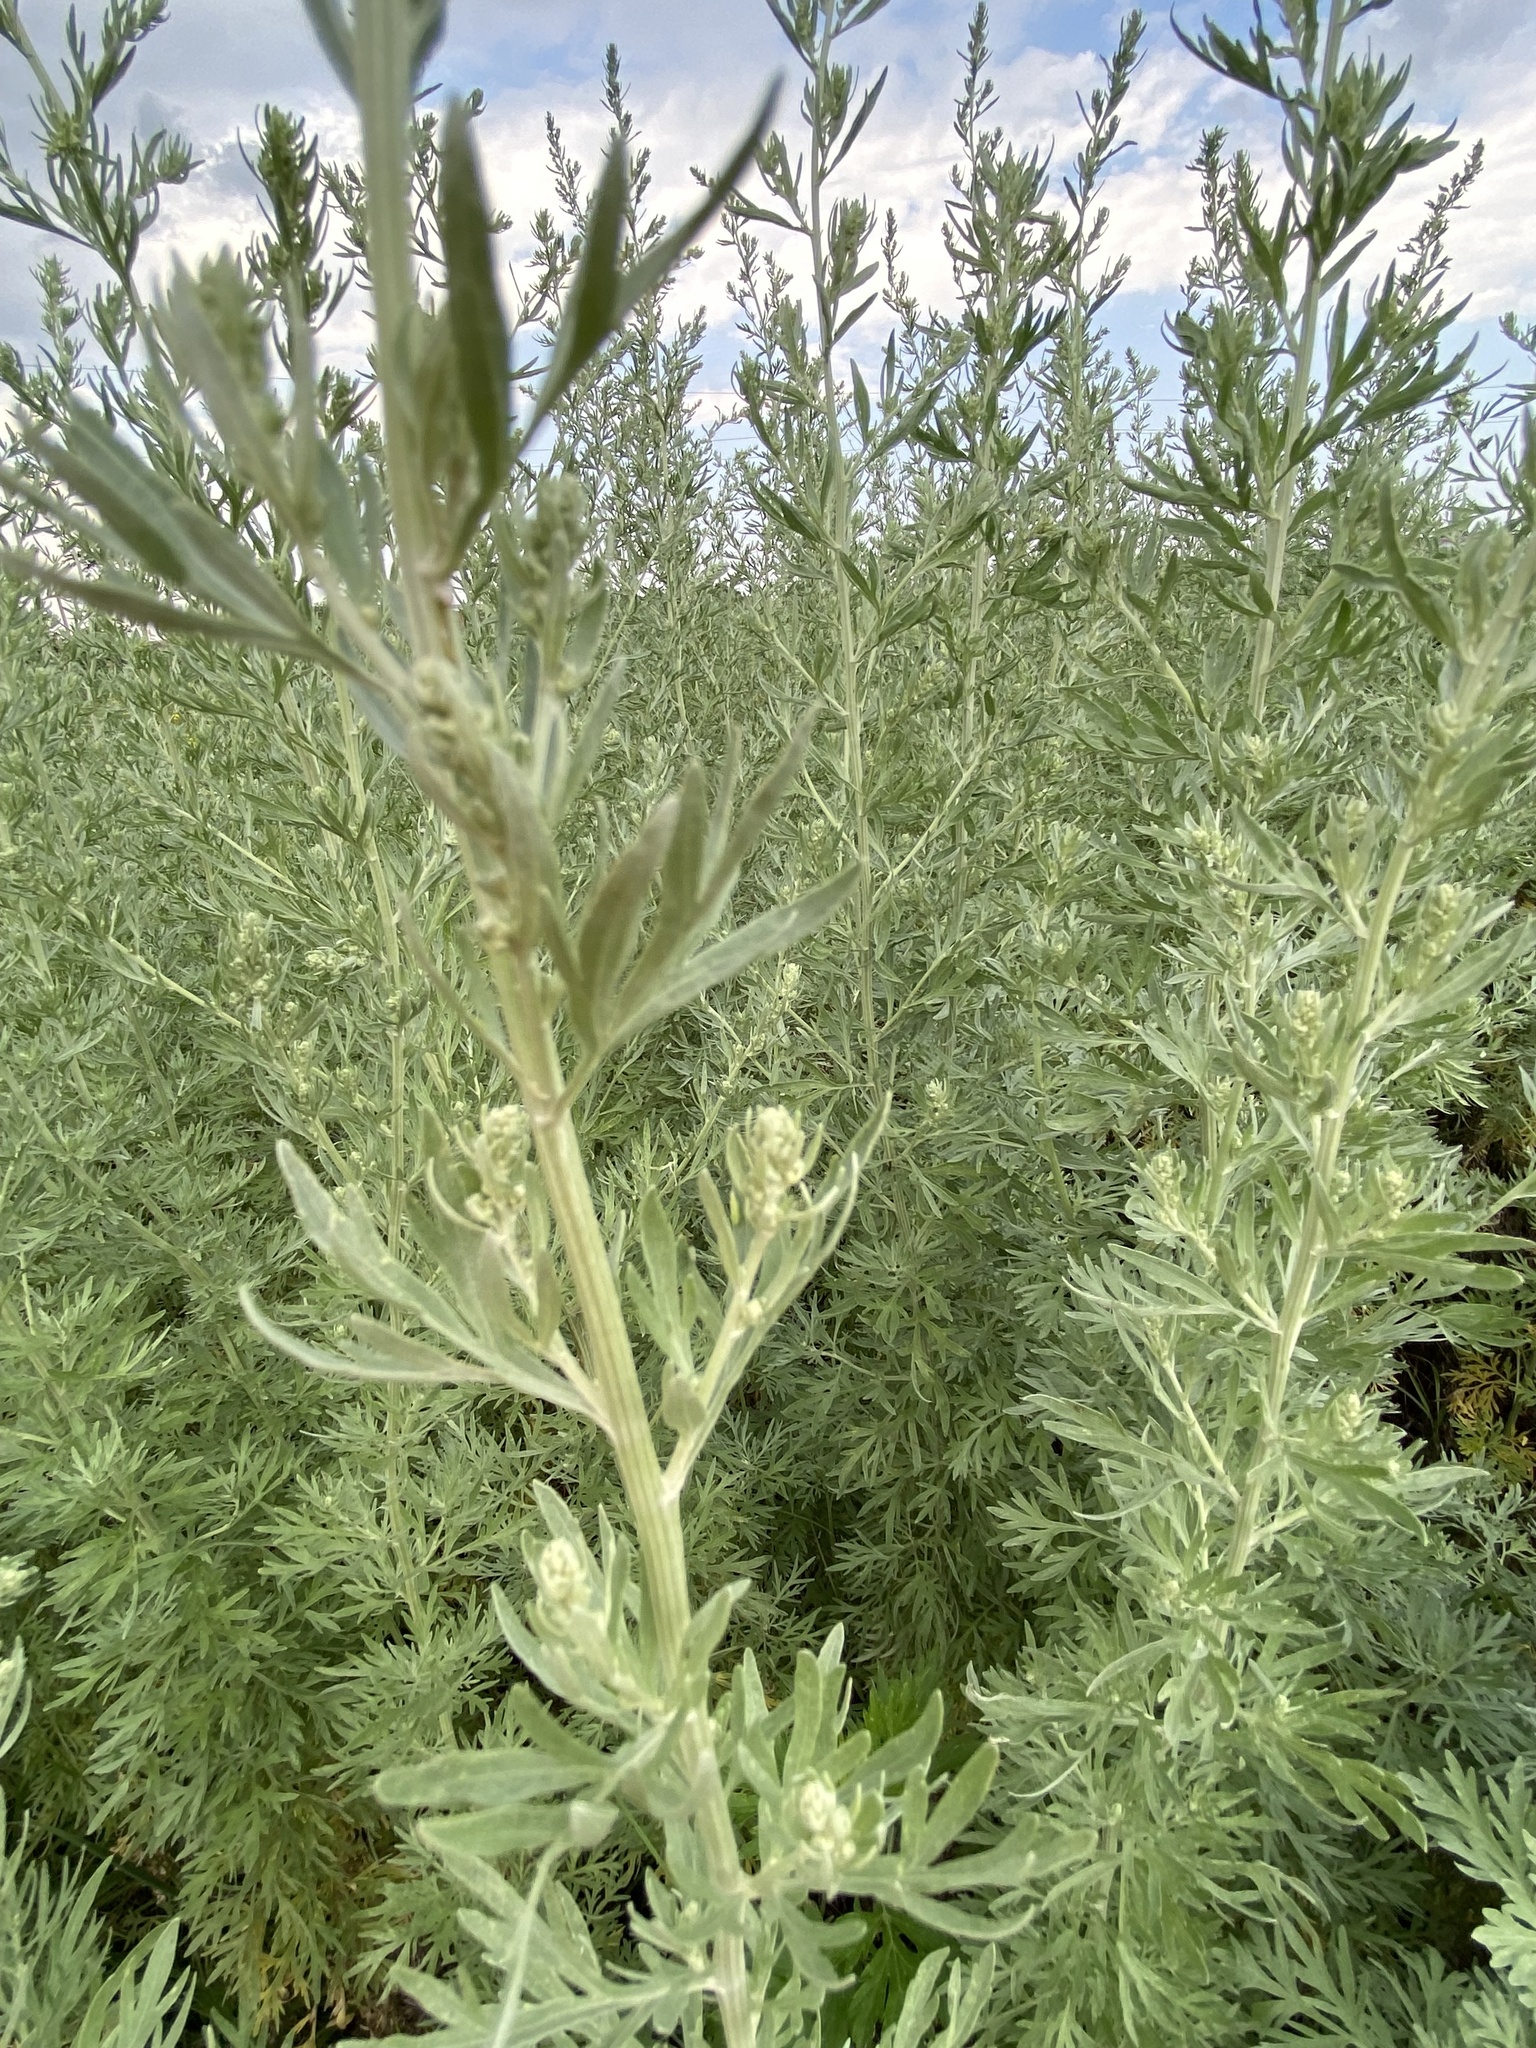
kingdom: Plantae
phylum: Tracheophyta
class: Magnoliopsida
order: Asterales
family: Asteraceae
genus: Artemisia
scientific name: Artemisia absinthium
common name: Wormwood
